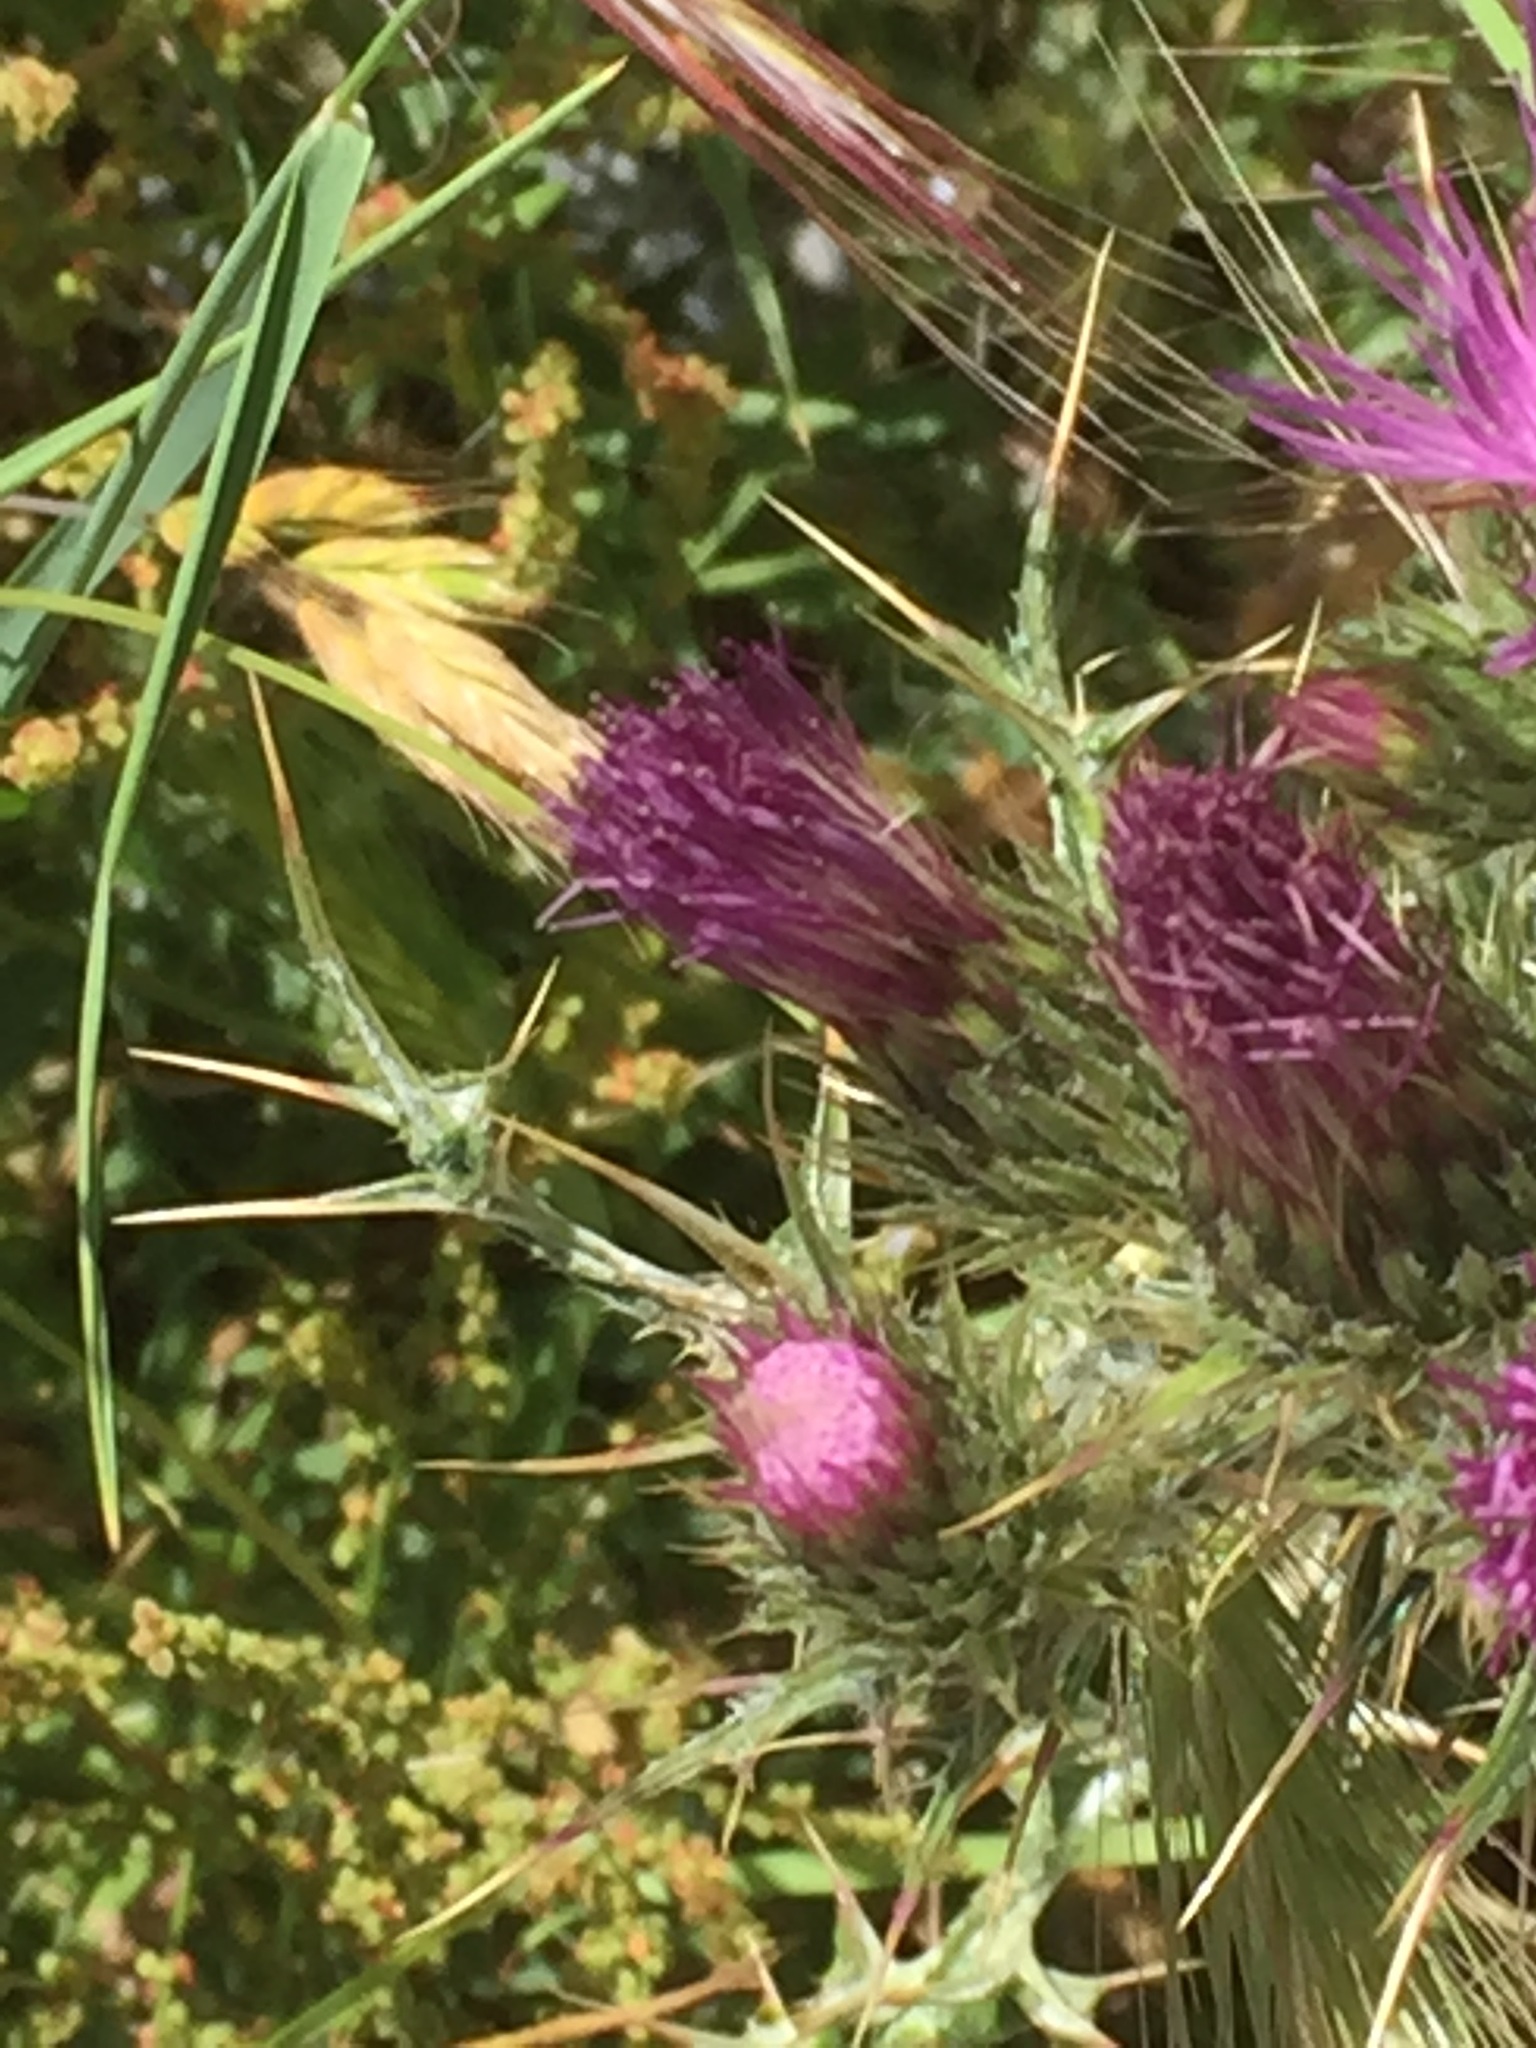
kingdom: Plantae
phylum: Tracheophyta
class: Magnoliopsida
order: Asterales
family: Asteraceae
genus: Carduus
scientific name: Carduus carpetanus
